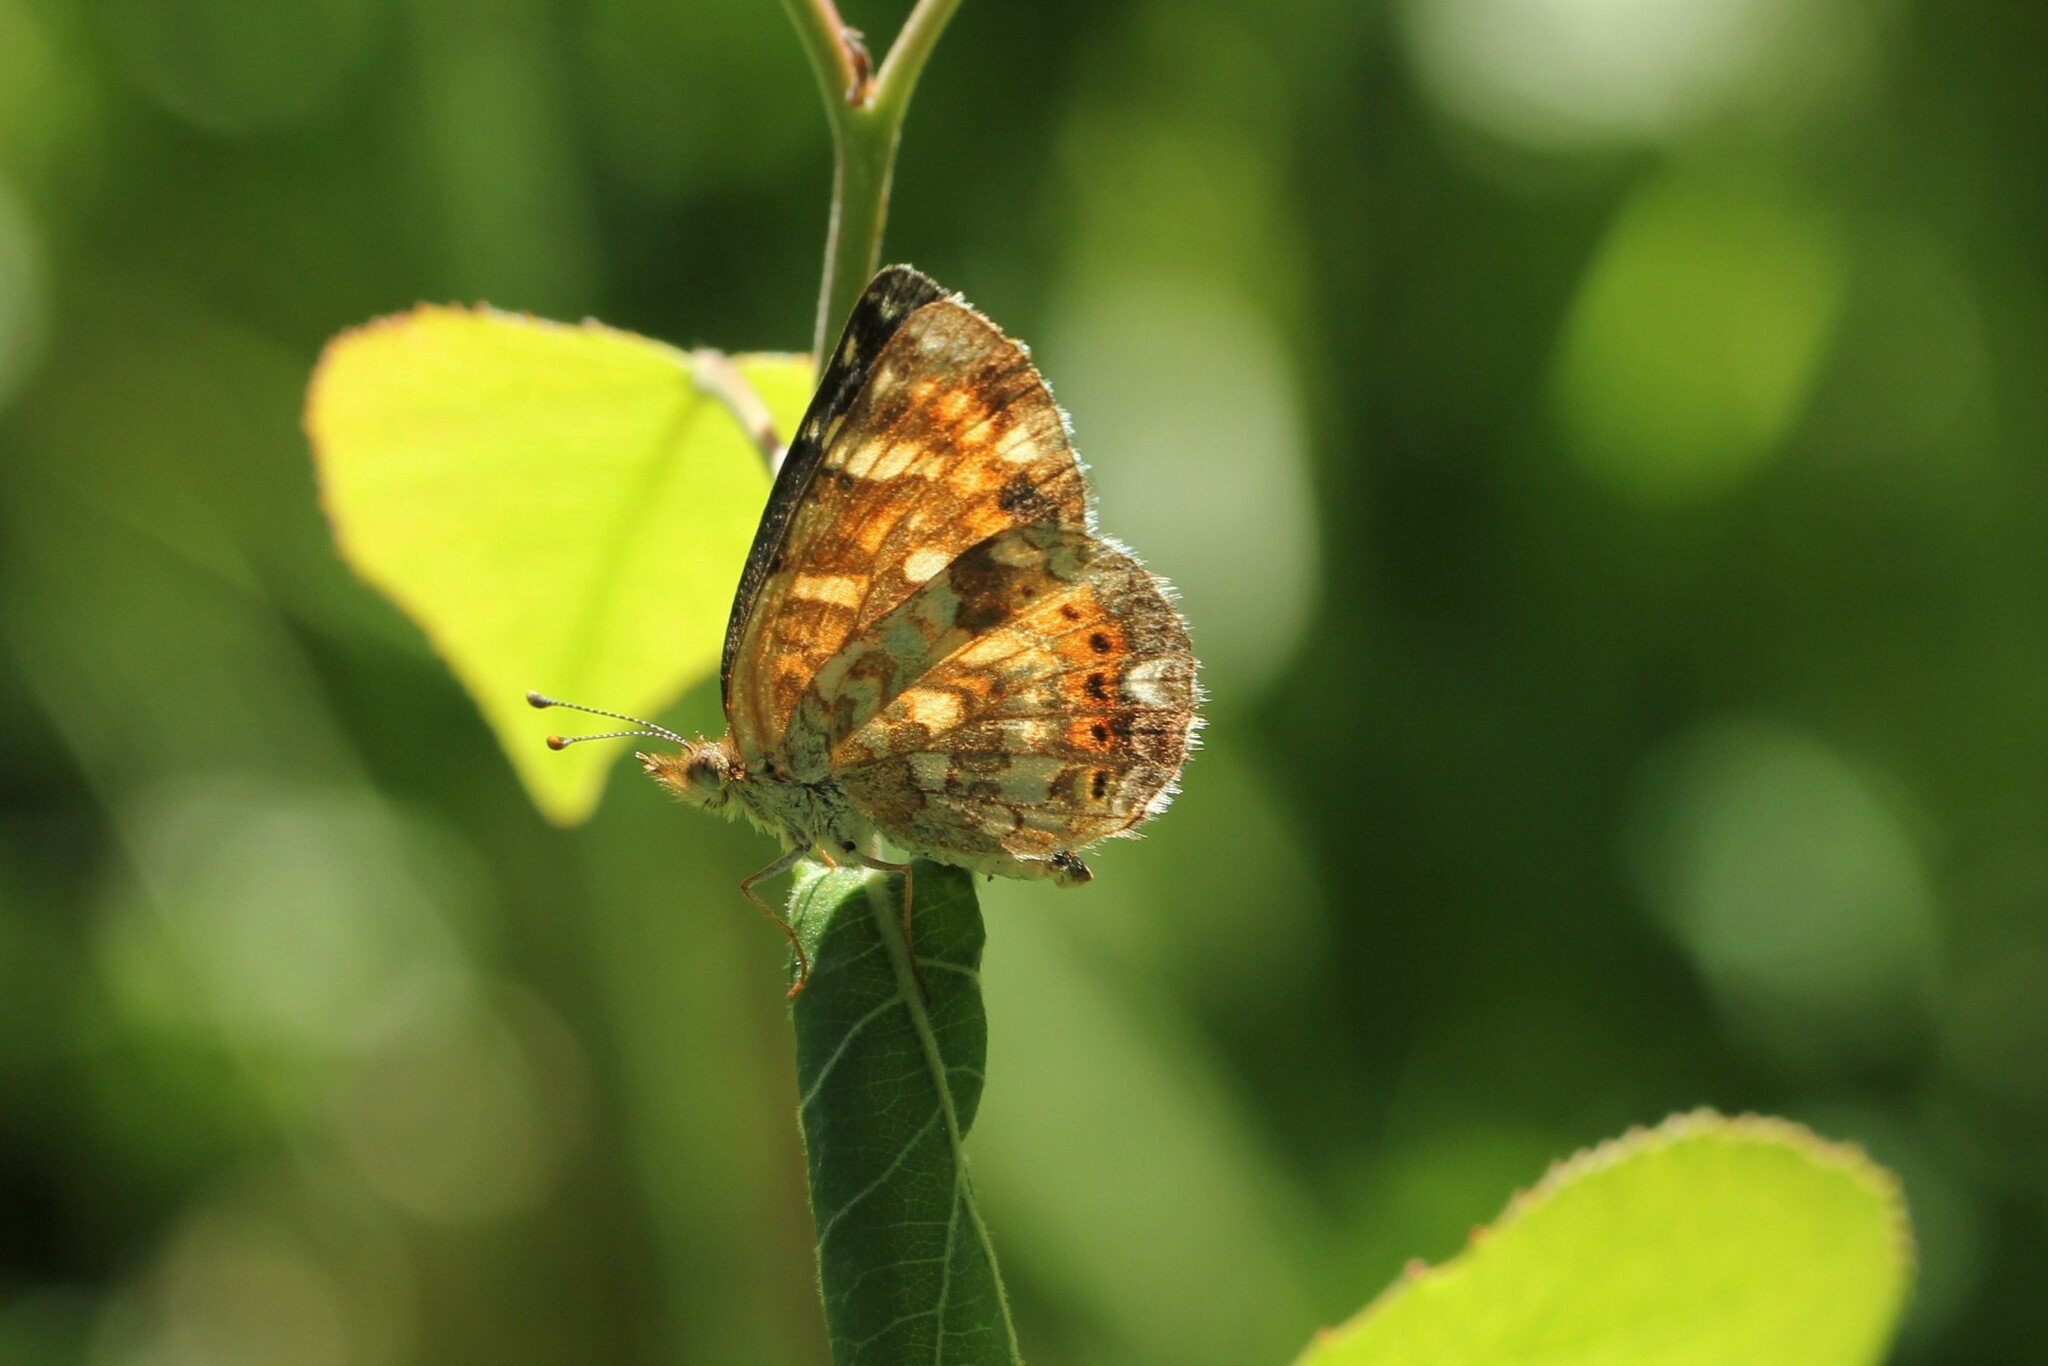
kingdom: Animalia
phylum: Arthropoda
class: Insecta
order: Lepidoptera
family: Nymphalidae
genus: Phyciodes
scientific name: Phyciodes tharos
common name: Pearl crescent
